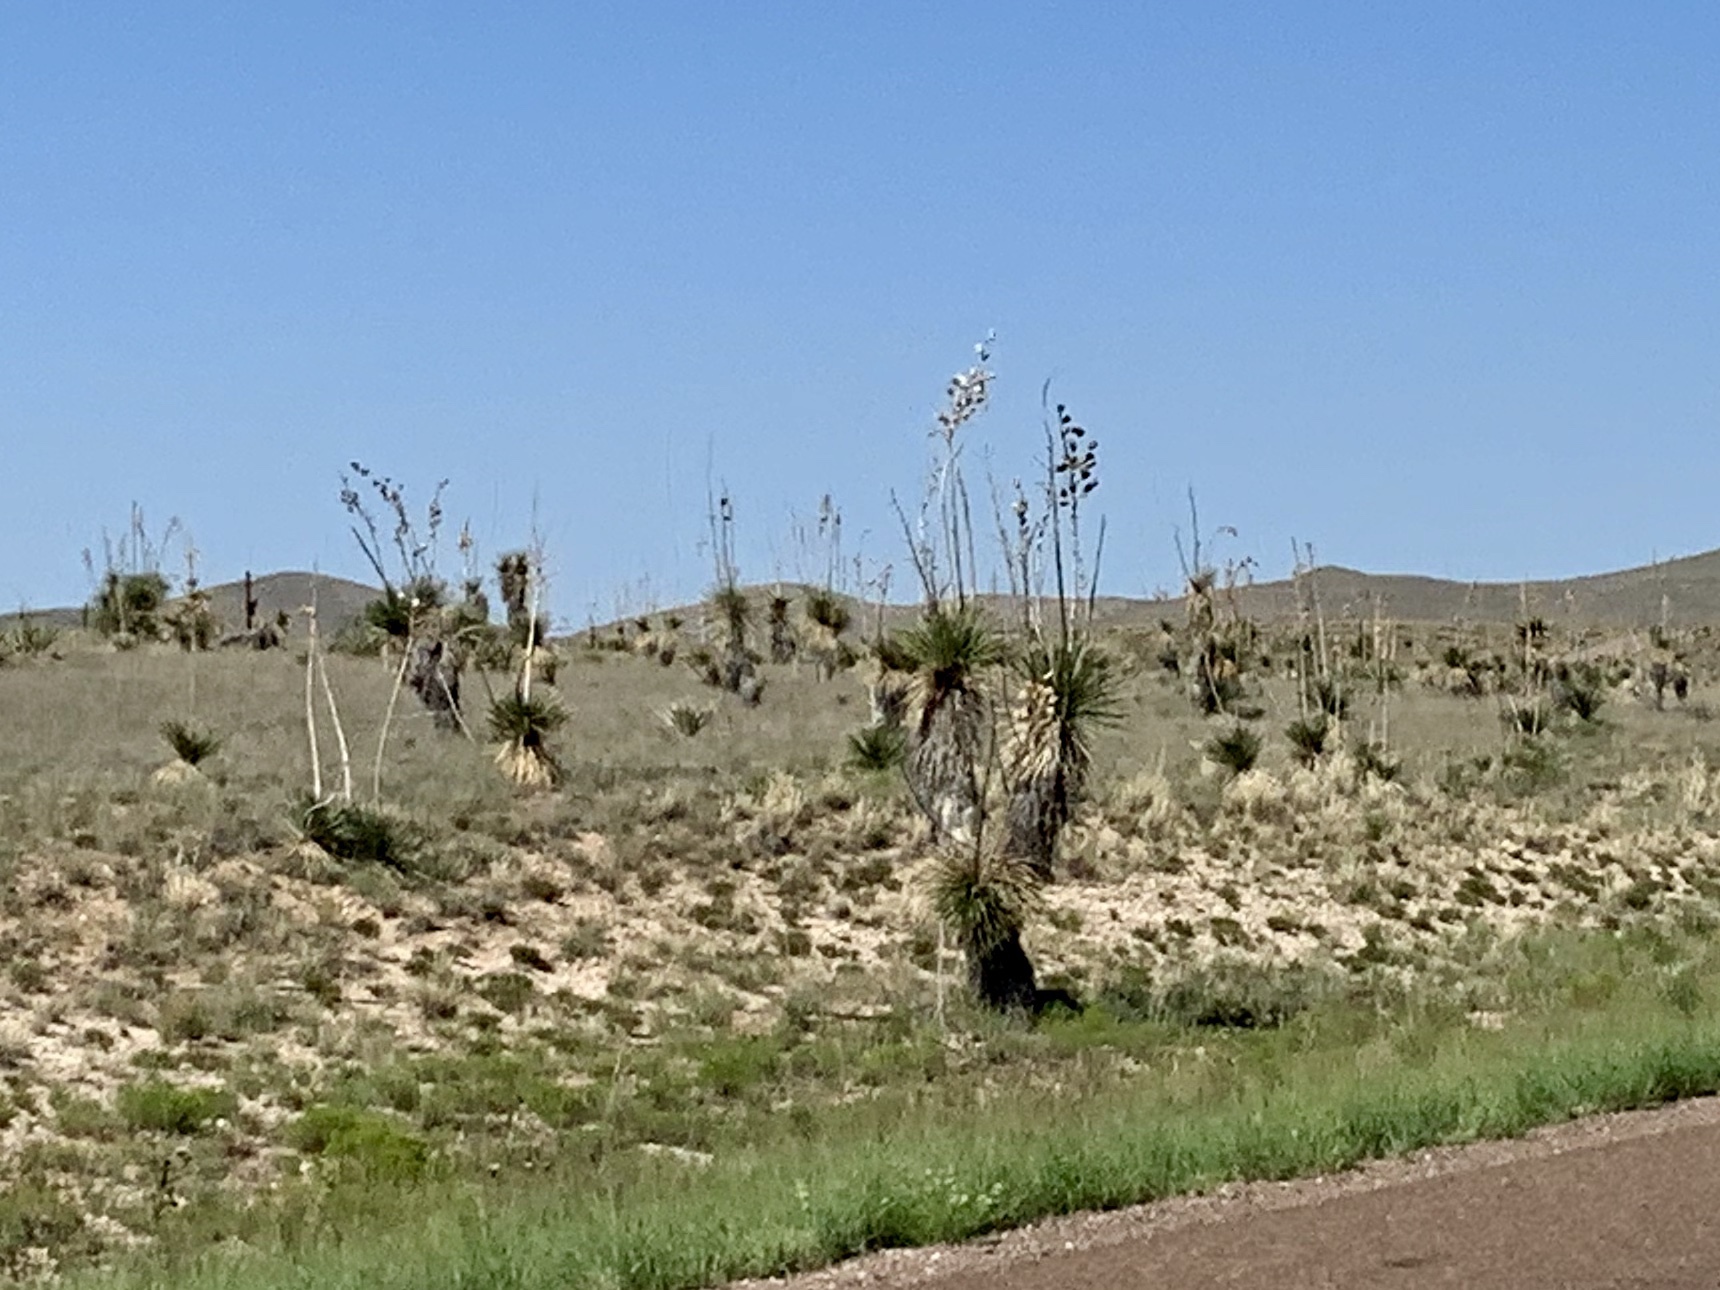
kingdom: Plantae
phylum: Tracheophyta
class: Liliopsida
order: Asparagales
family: Asparagaceae
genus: Yucca
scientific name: Yucca elata
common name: Palmella
